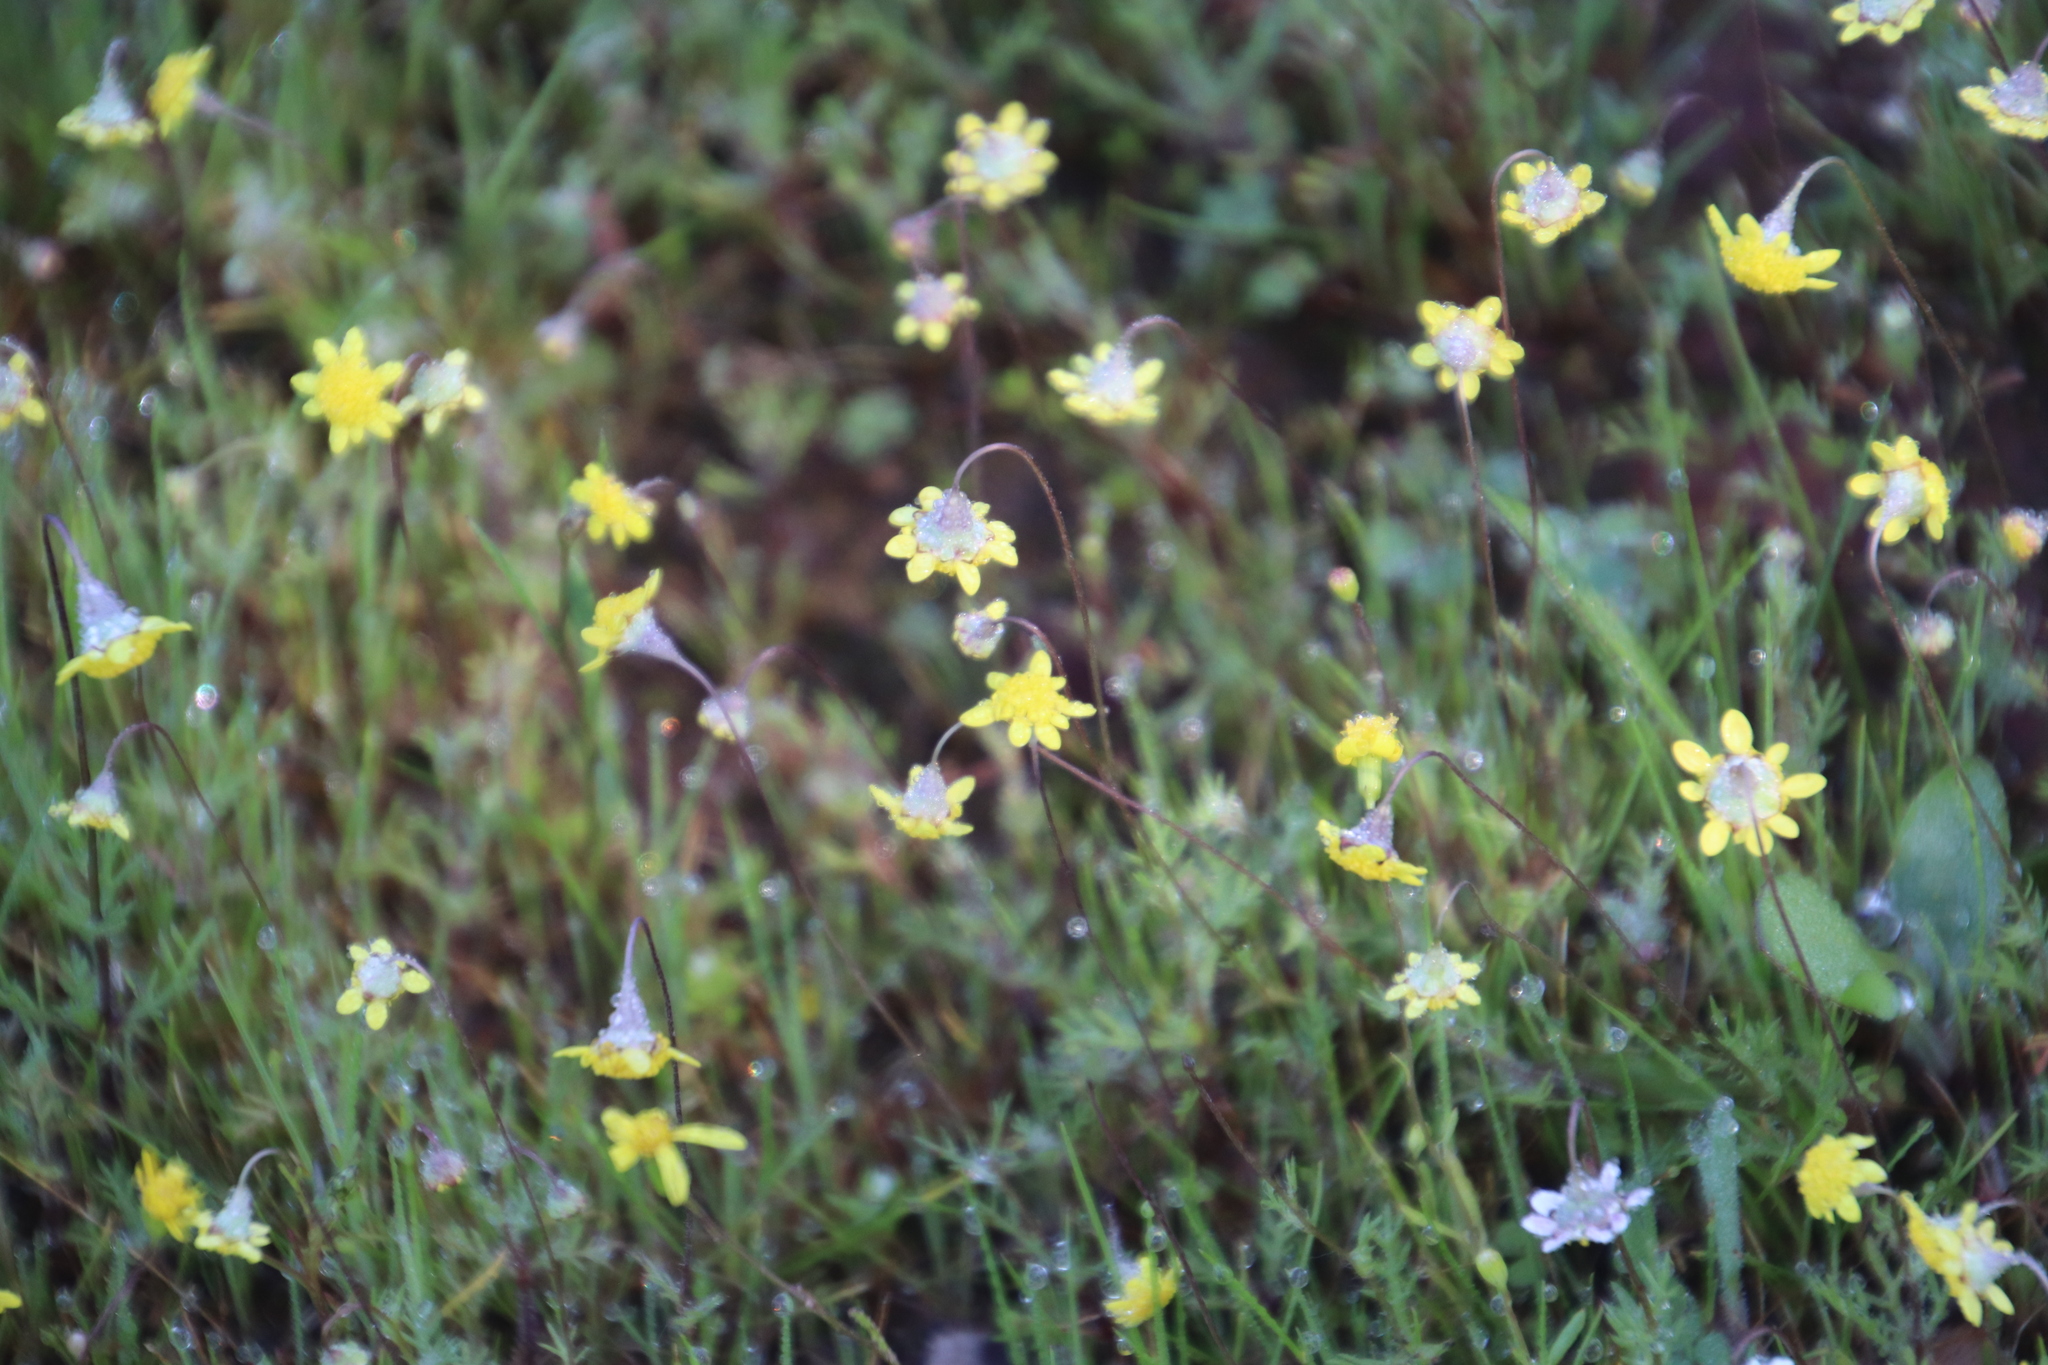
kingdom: Plantae
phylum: Tracheophyta
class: Magnoliopsida
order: Asterales
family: Asteraceae
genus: Cotula
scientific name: Cotula pruinosa
